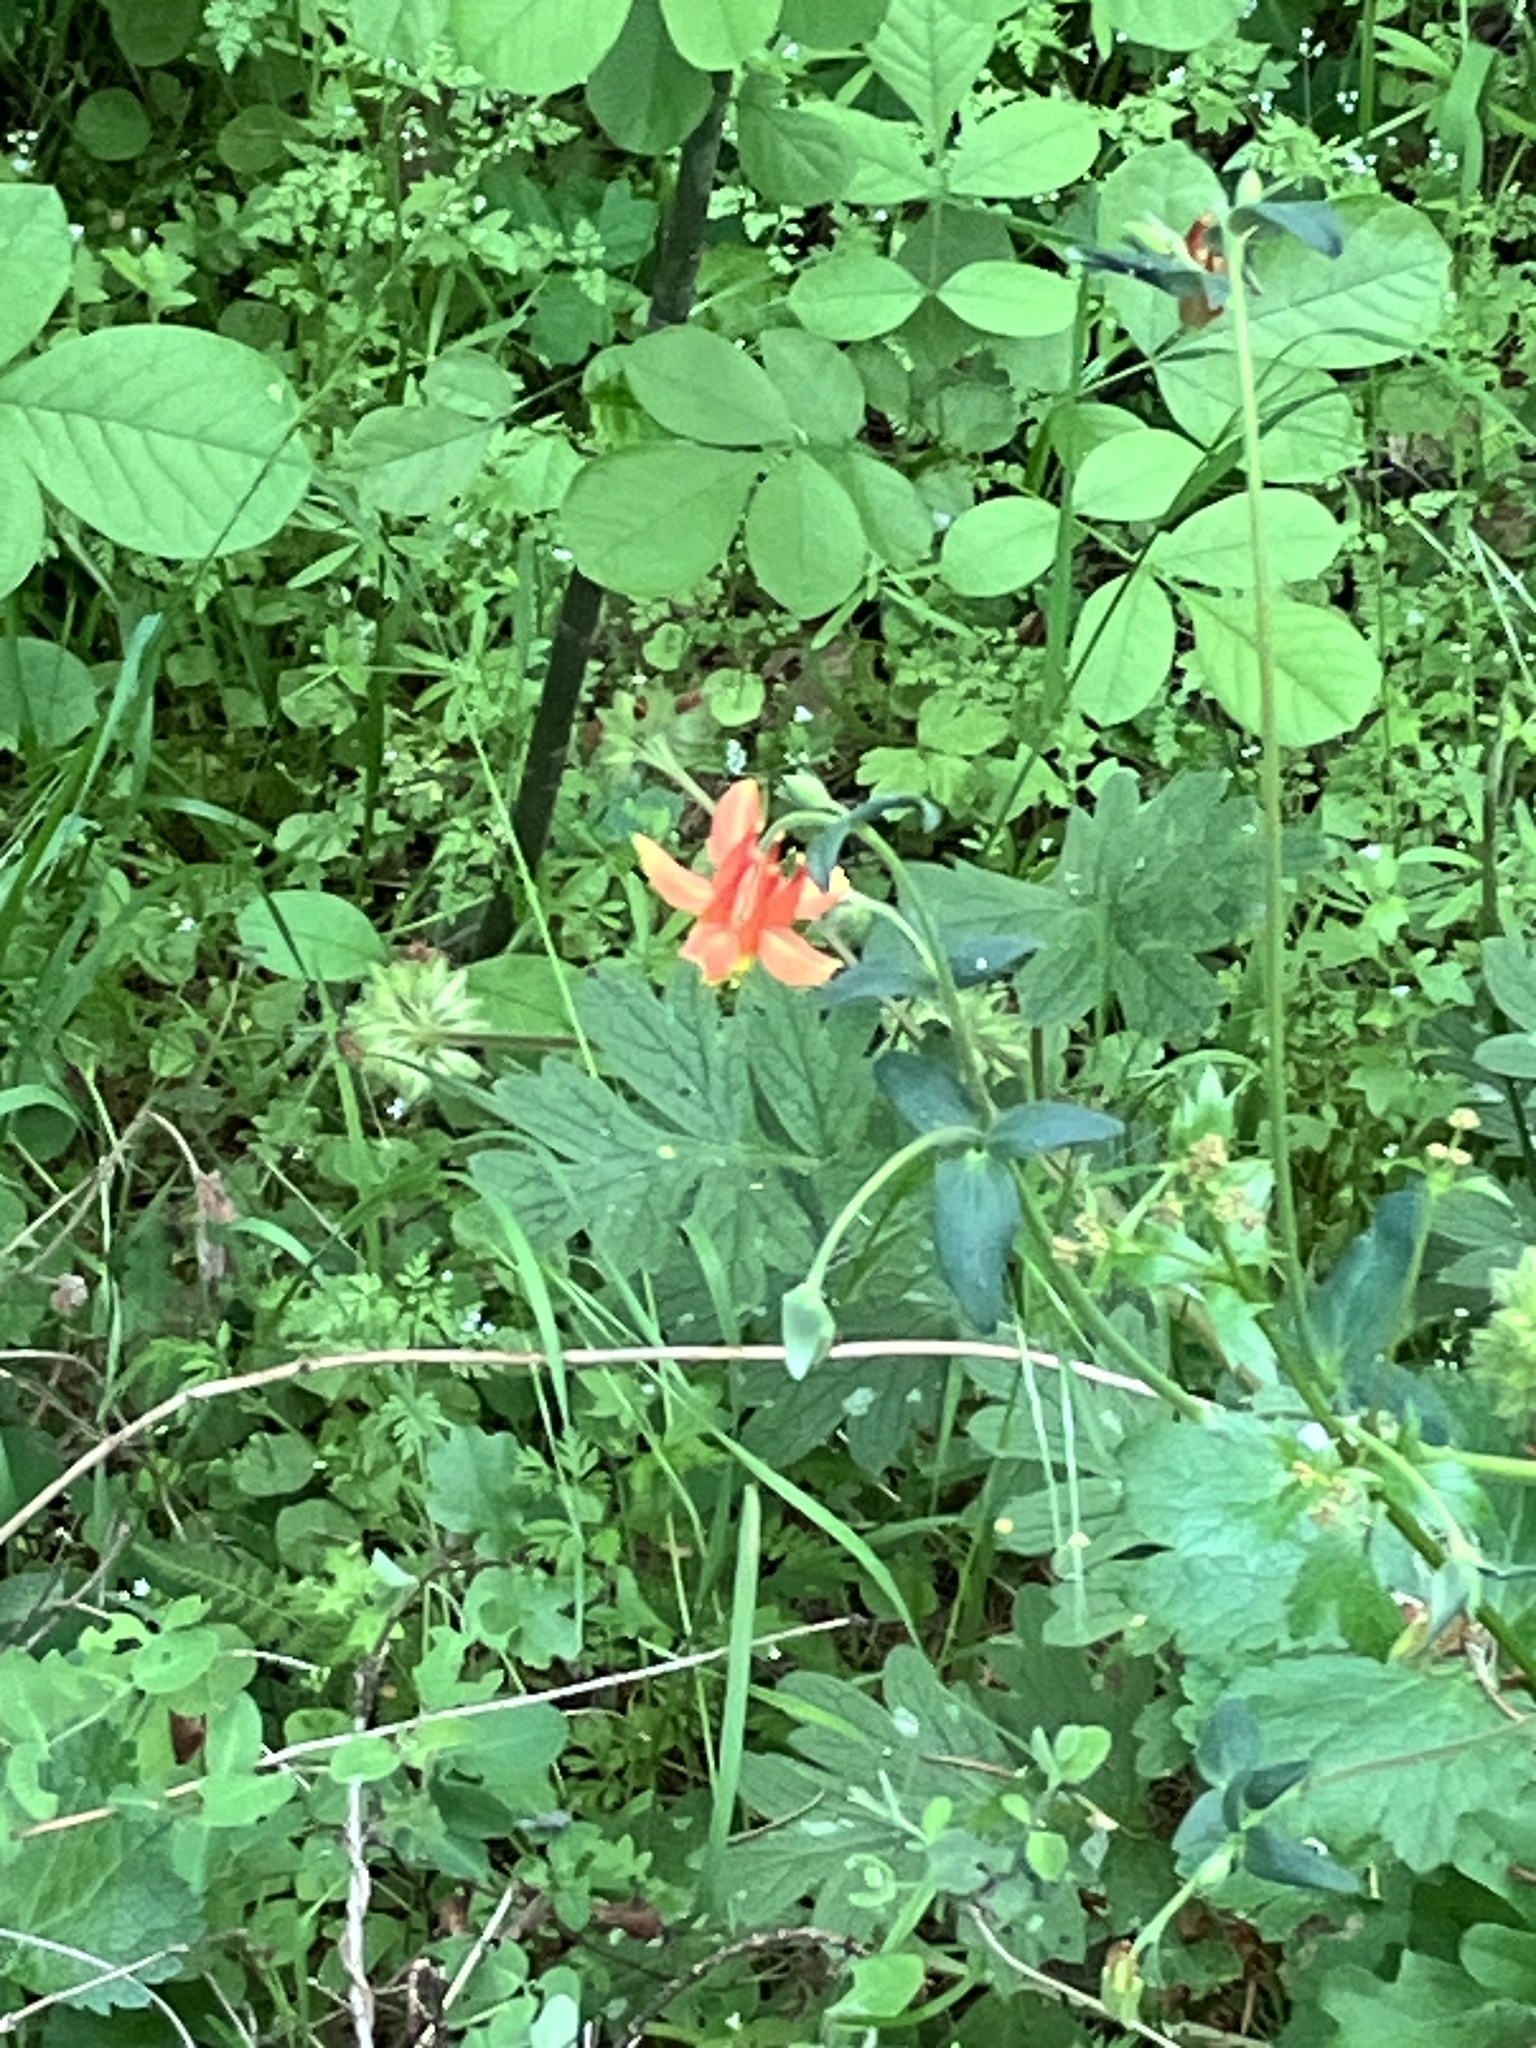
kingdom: Plantae
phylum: Tracheophyta
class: Magnoliopsida
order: Ranunculales
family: Ranunculaceae
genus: Aquilegia
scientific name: Aquilegia formosa
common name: Sitka columbine
